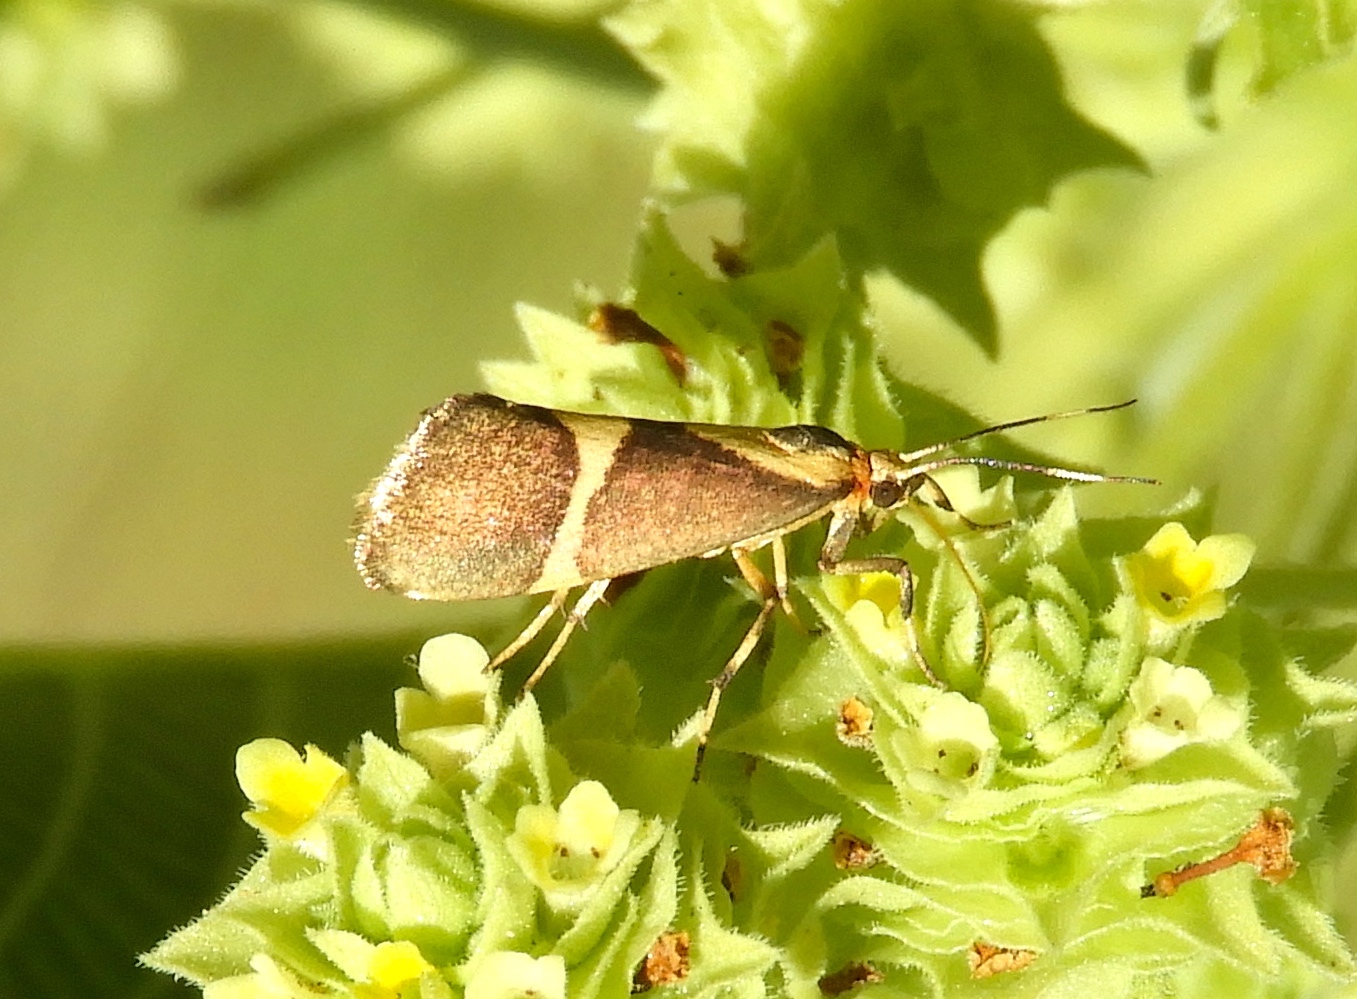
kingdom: Animalia
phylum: Arthropoda
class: Insecta
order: Lepidoptera
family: Erebidae
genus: Cisthene
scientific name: Cisthene
